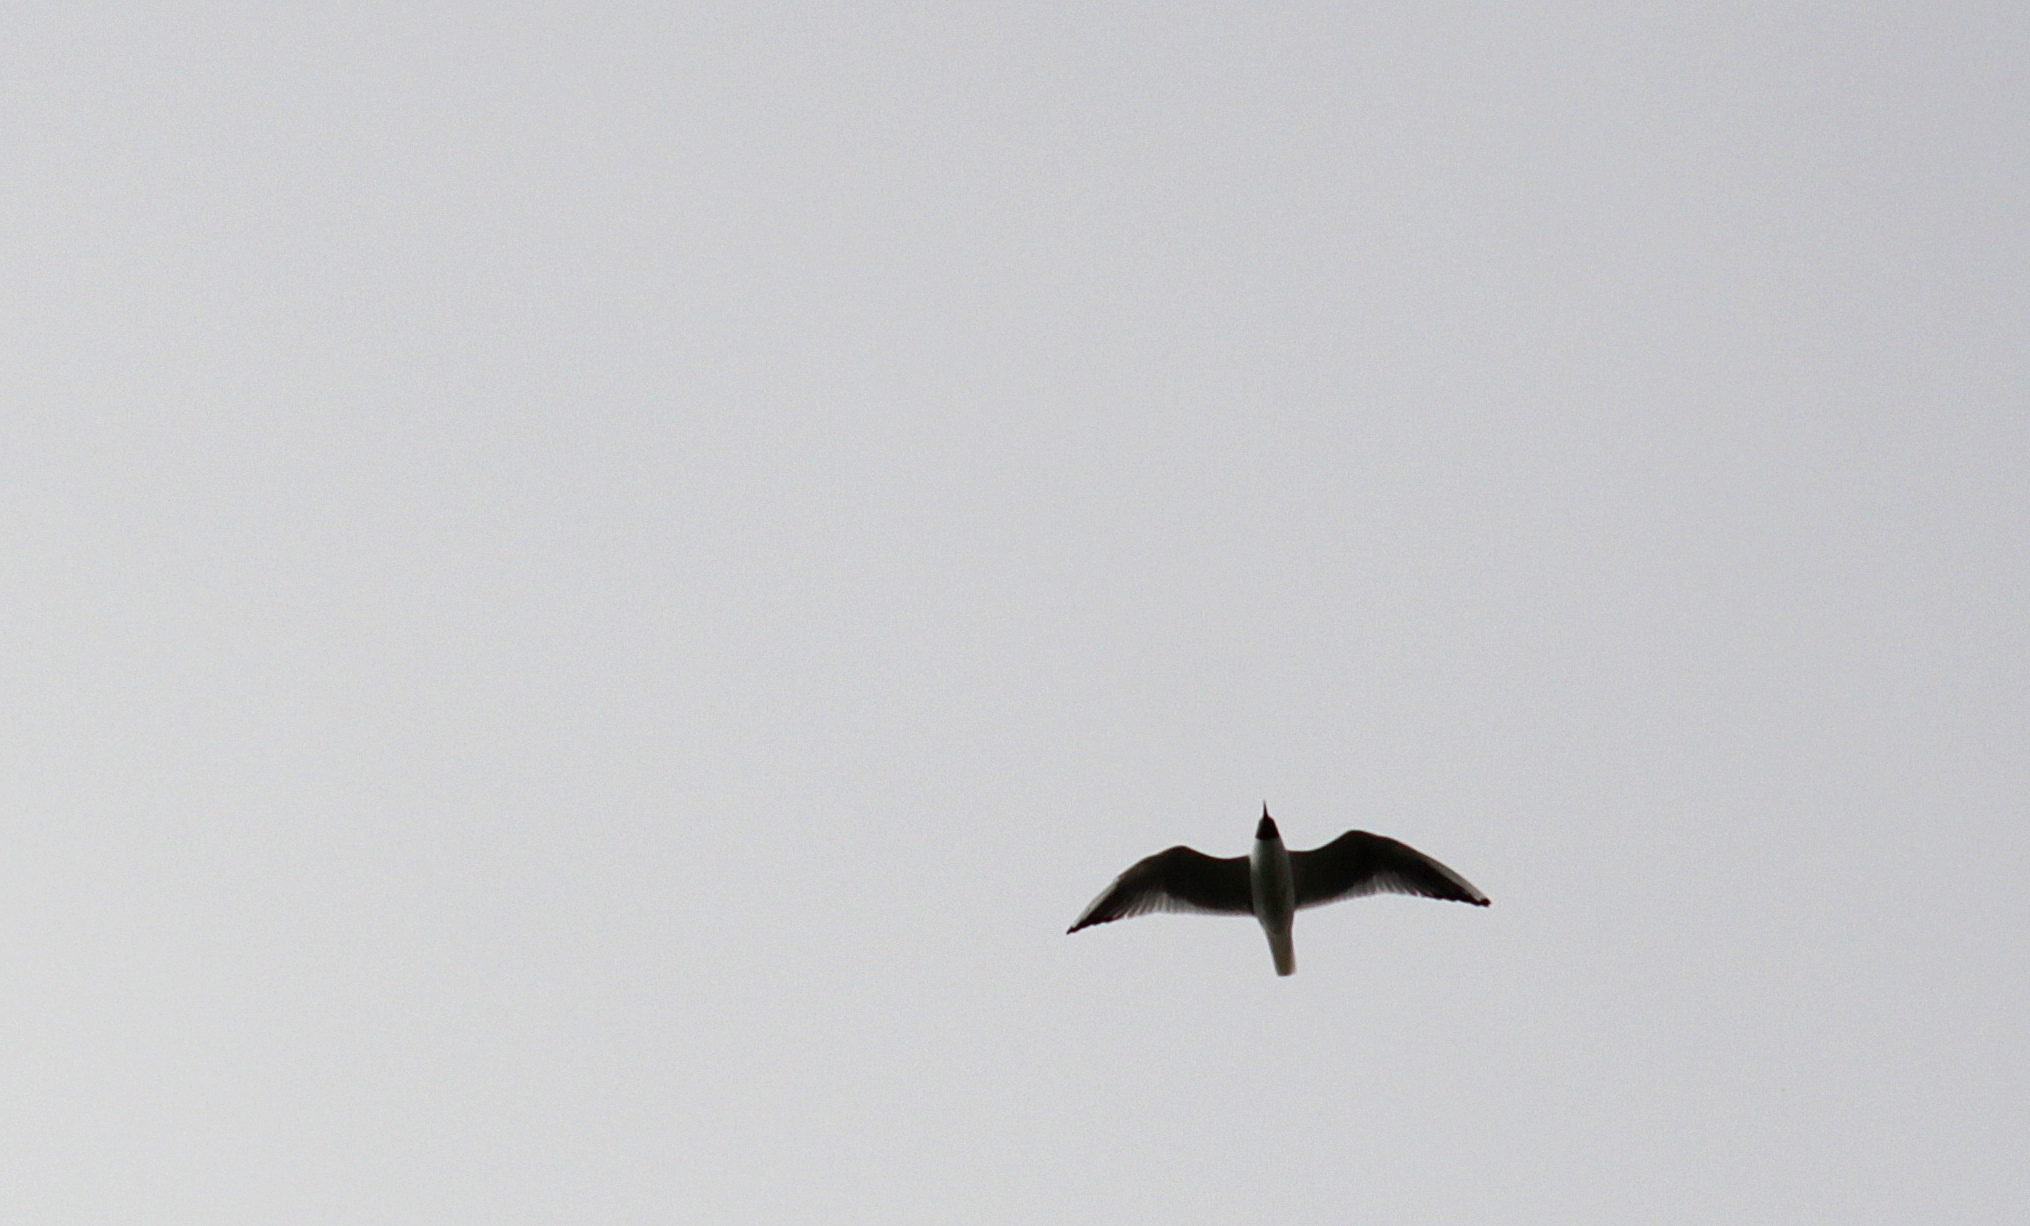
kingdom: Animalia
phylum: Chordata
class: Aves
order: Charadriiformes
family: Laridae
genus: Chroicocephalus
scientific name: Chroicocephalus ridibundus
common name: Black-headed gull
